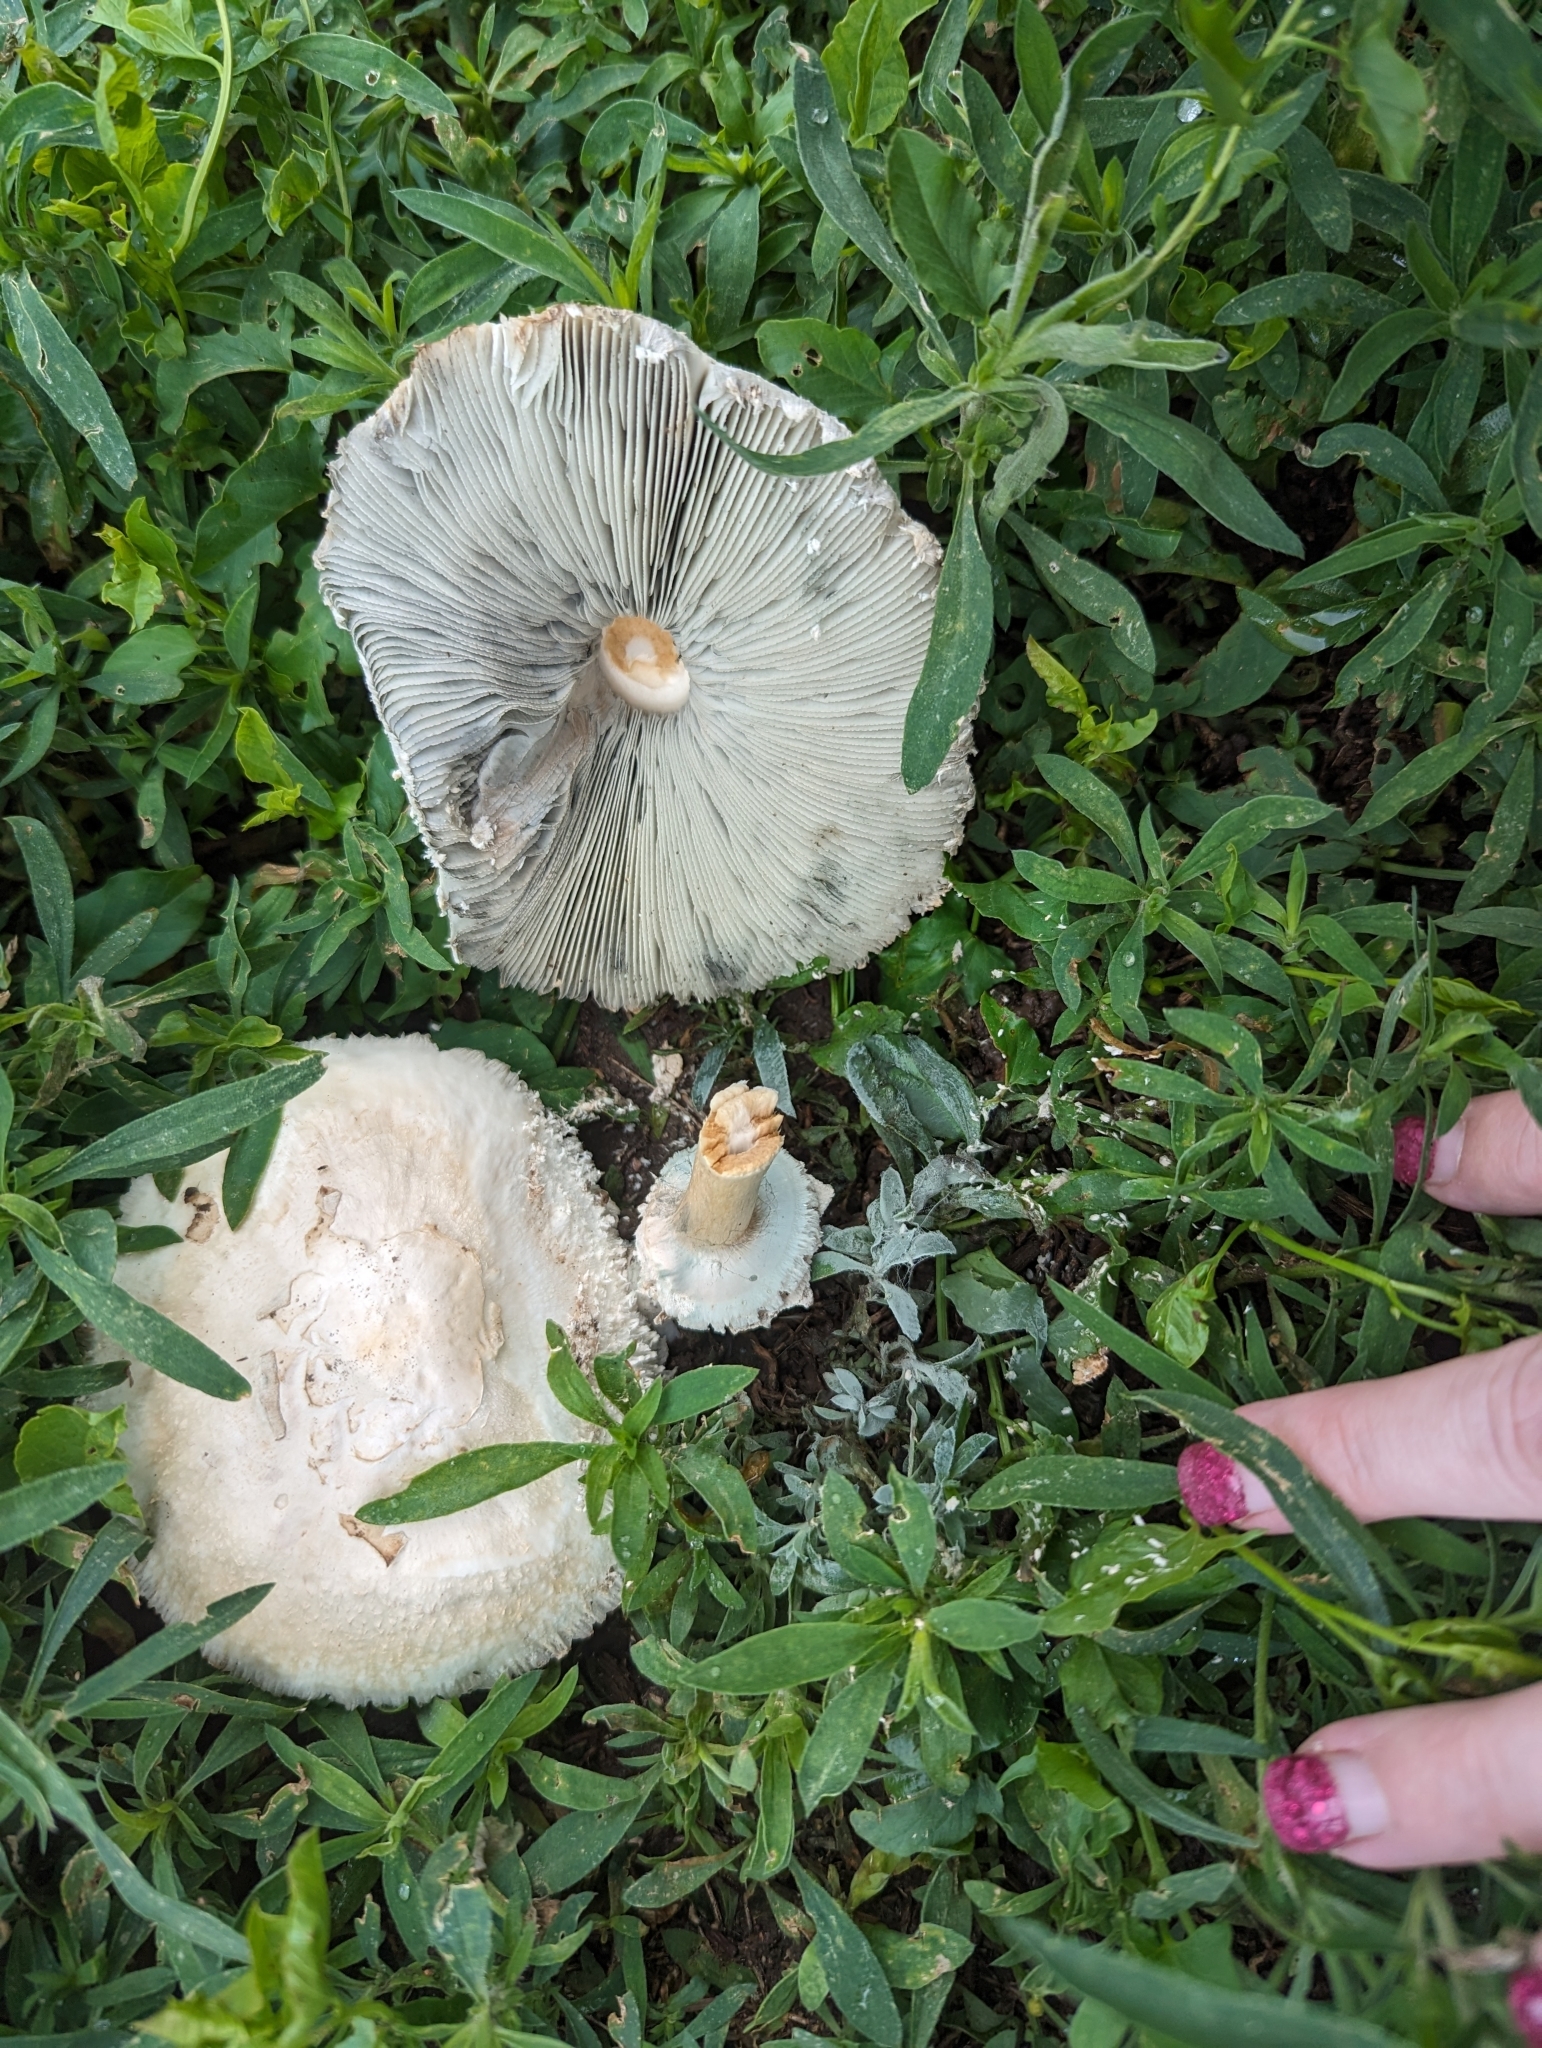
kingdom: Fungi
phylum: Basidiomycota
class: Agaricomycetes
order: Agaricales
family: Agaricaceae
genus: Chlorophyllum
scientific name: Chlorophyllum molybdites
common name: False parasol
